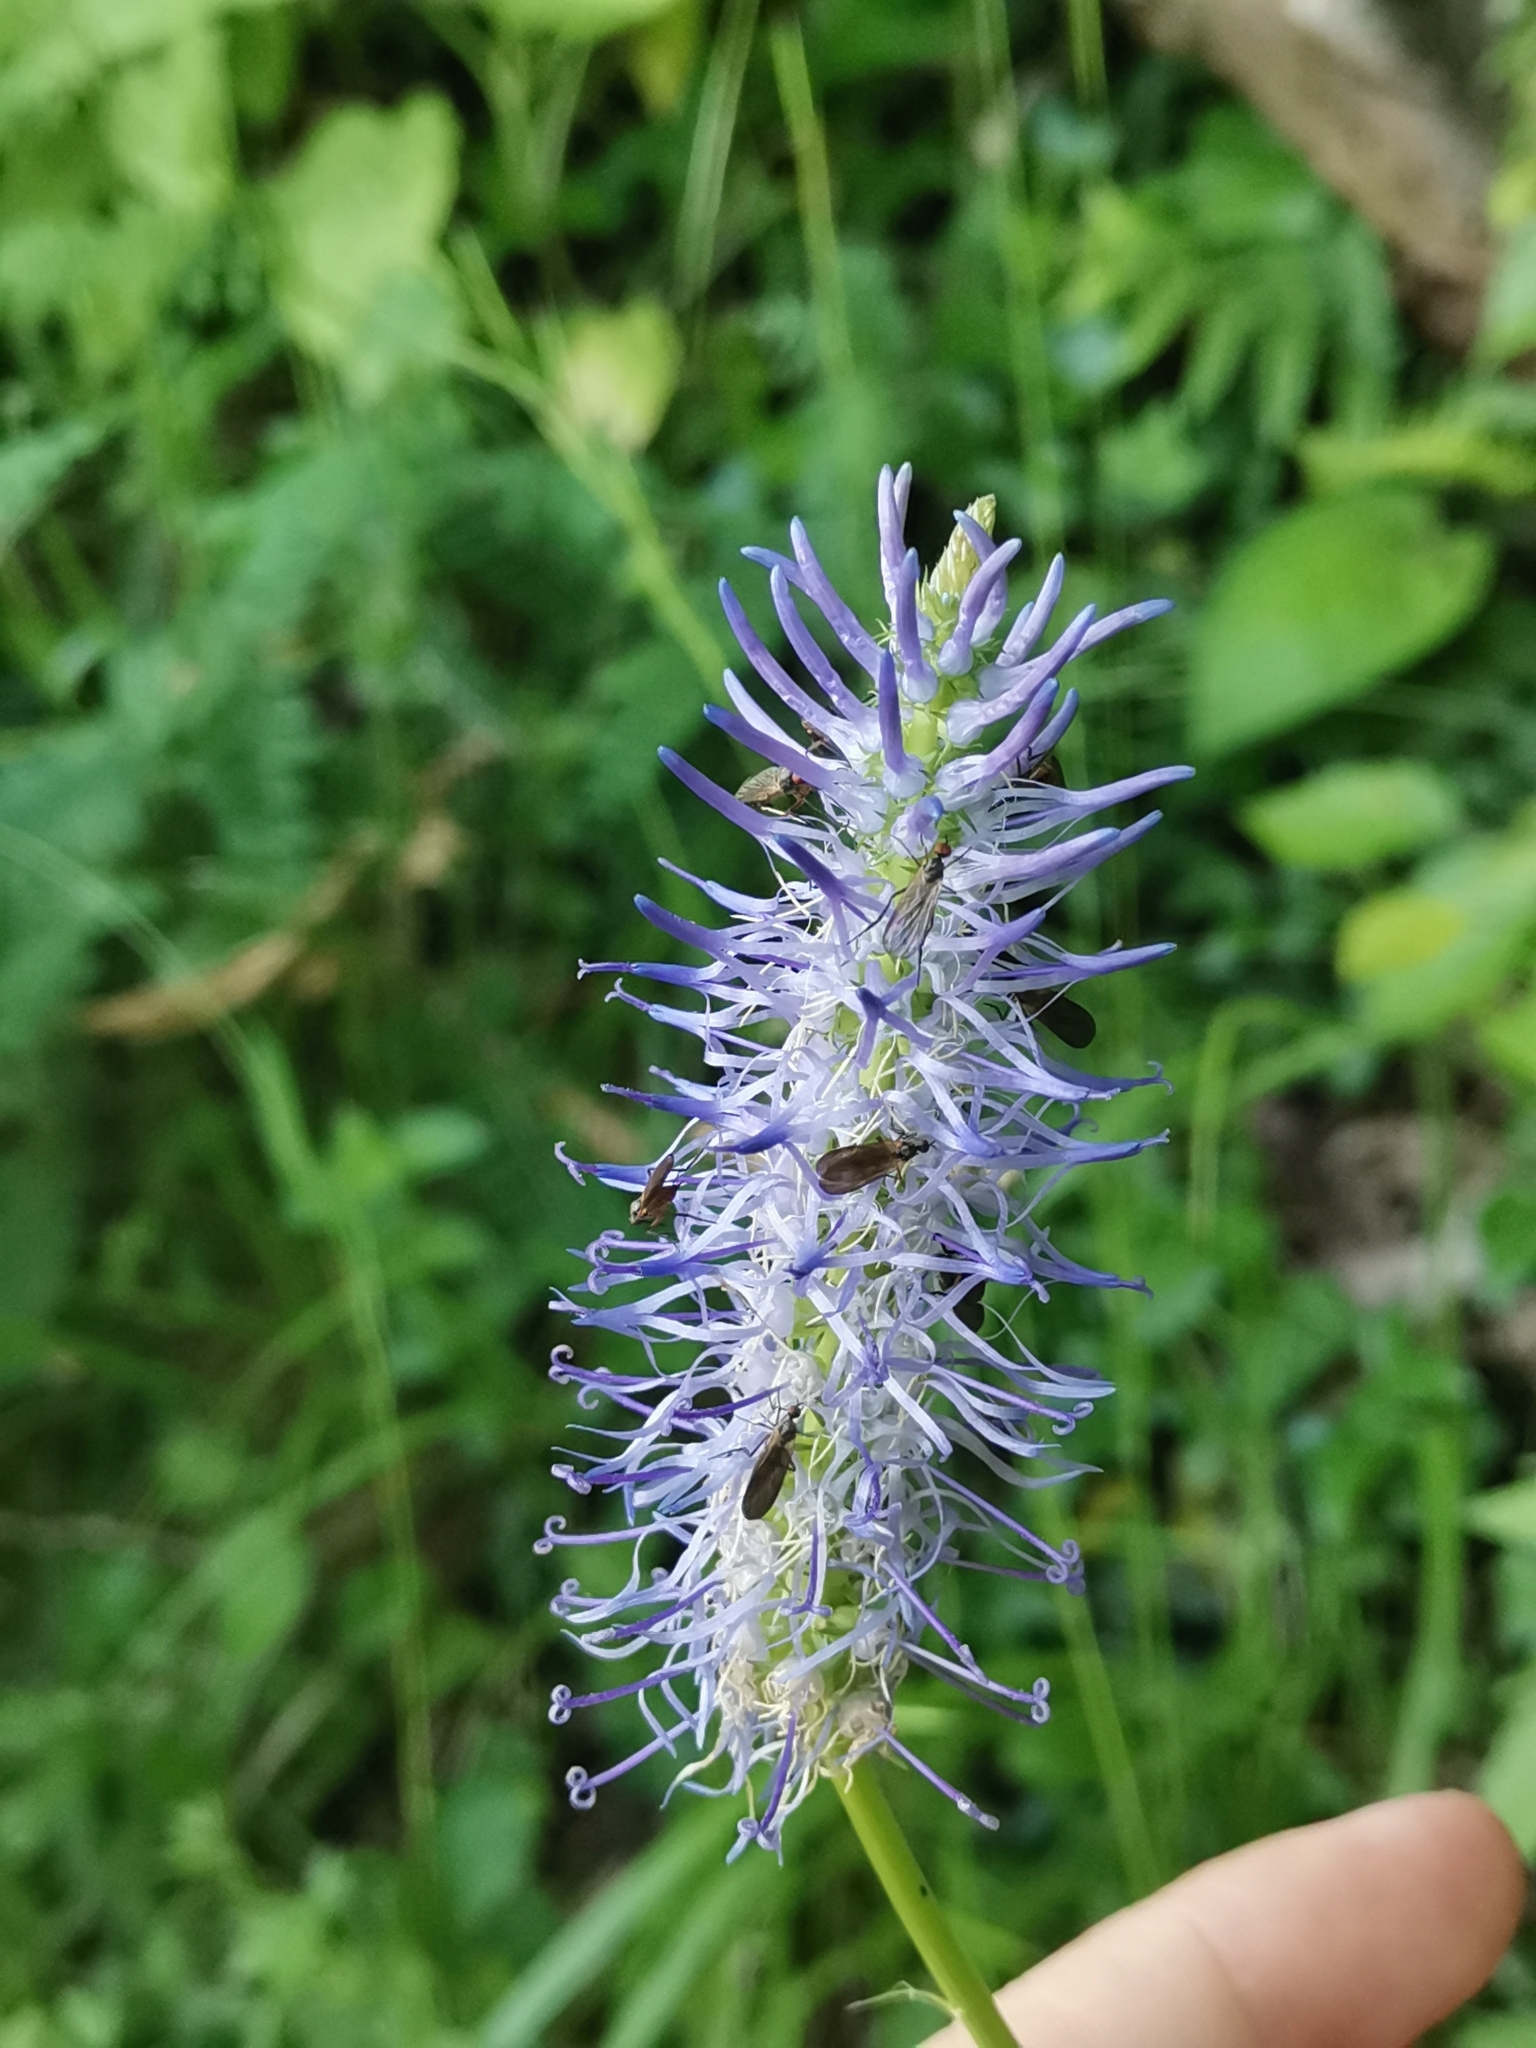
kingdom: Plantae
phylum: Tracheophyta
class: Magnoliopsida
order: Asterales
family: Campanulaceae
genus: Phyteuma
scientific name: Phyteuma persicifolium
